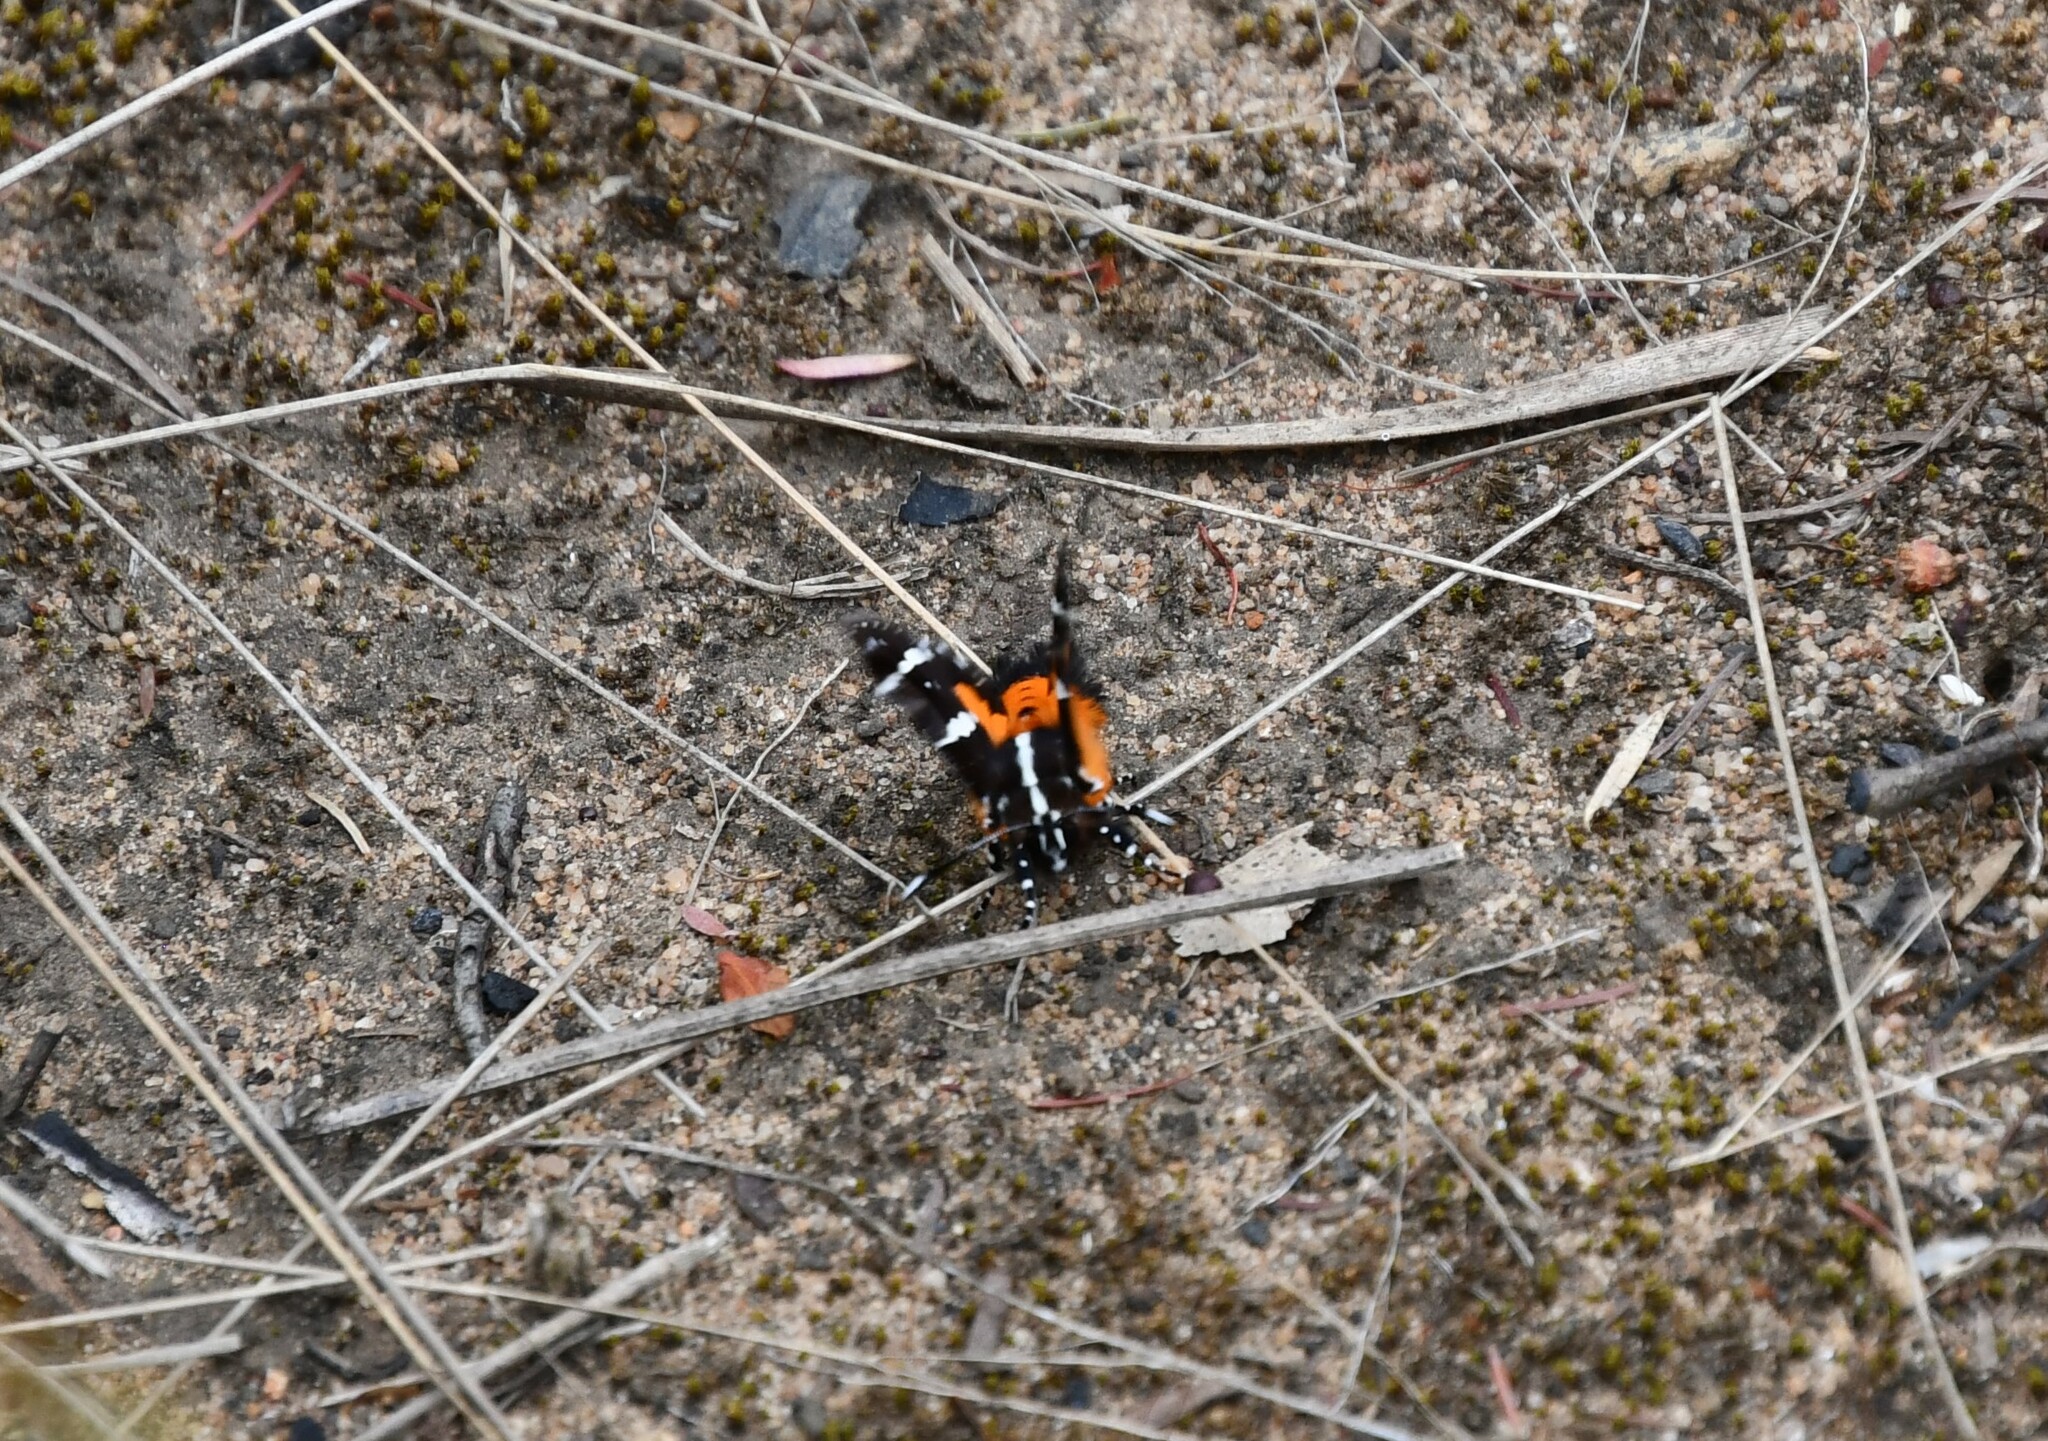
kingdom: Animalia
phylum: Arthropoda
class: Insecta
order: Lepidoptera
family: Noctuidae
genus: Hecatesia
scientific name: Hecatesia fenestrata
